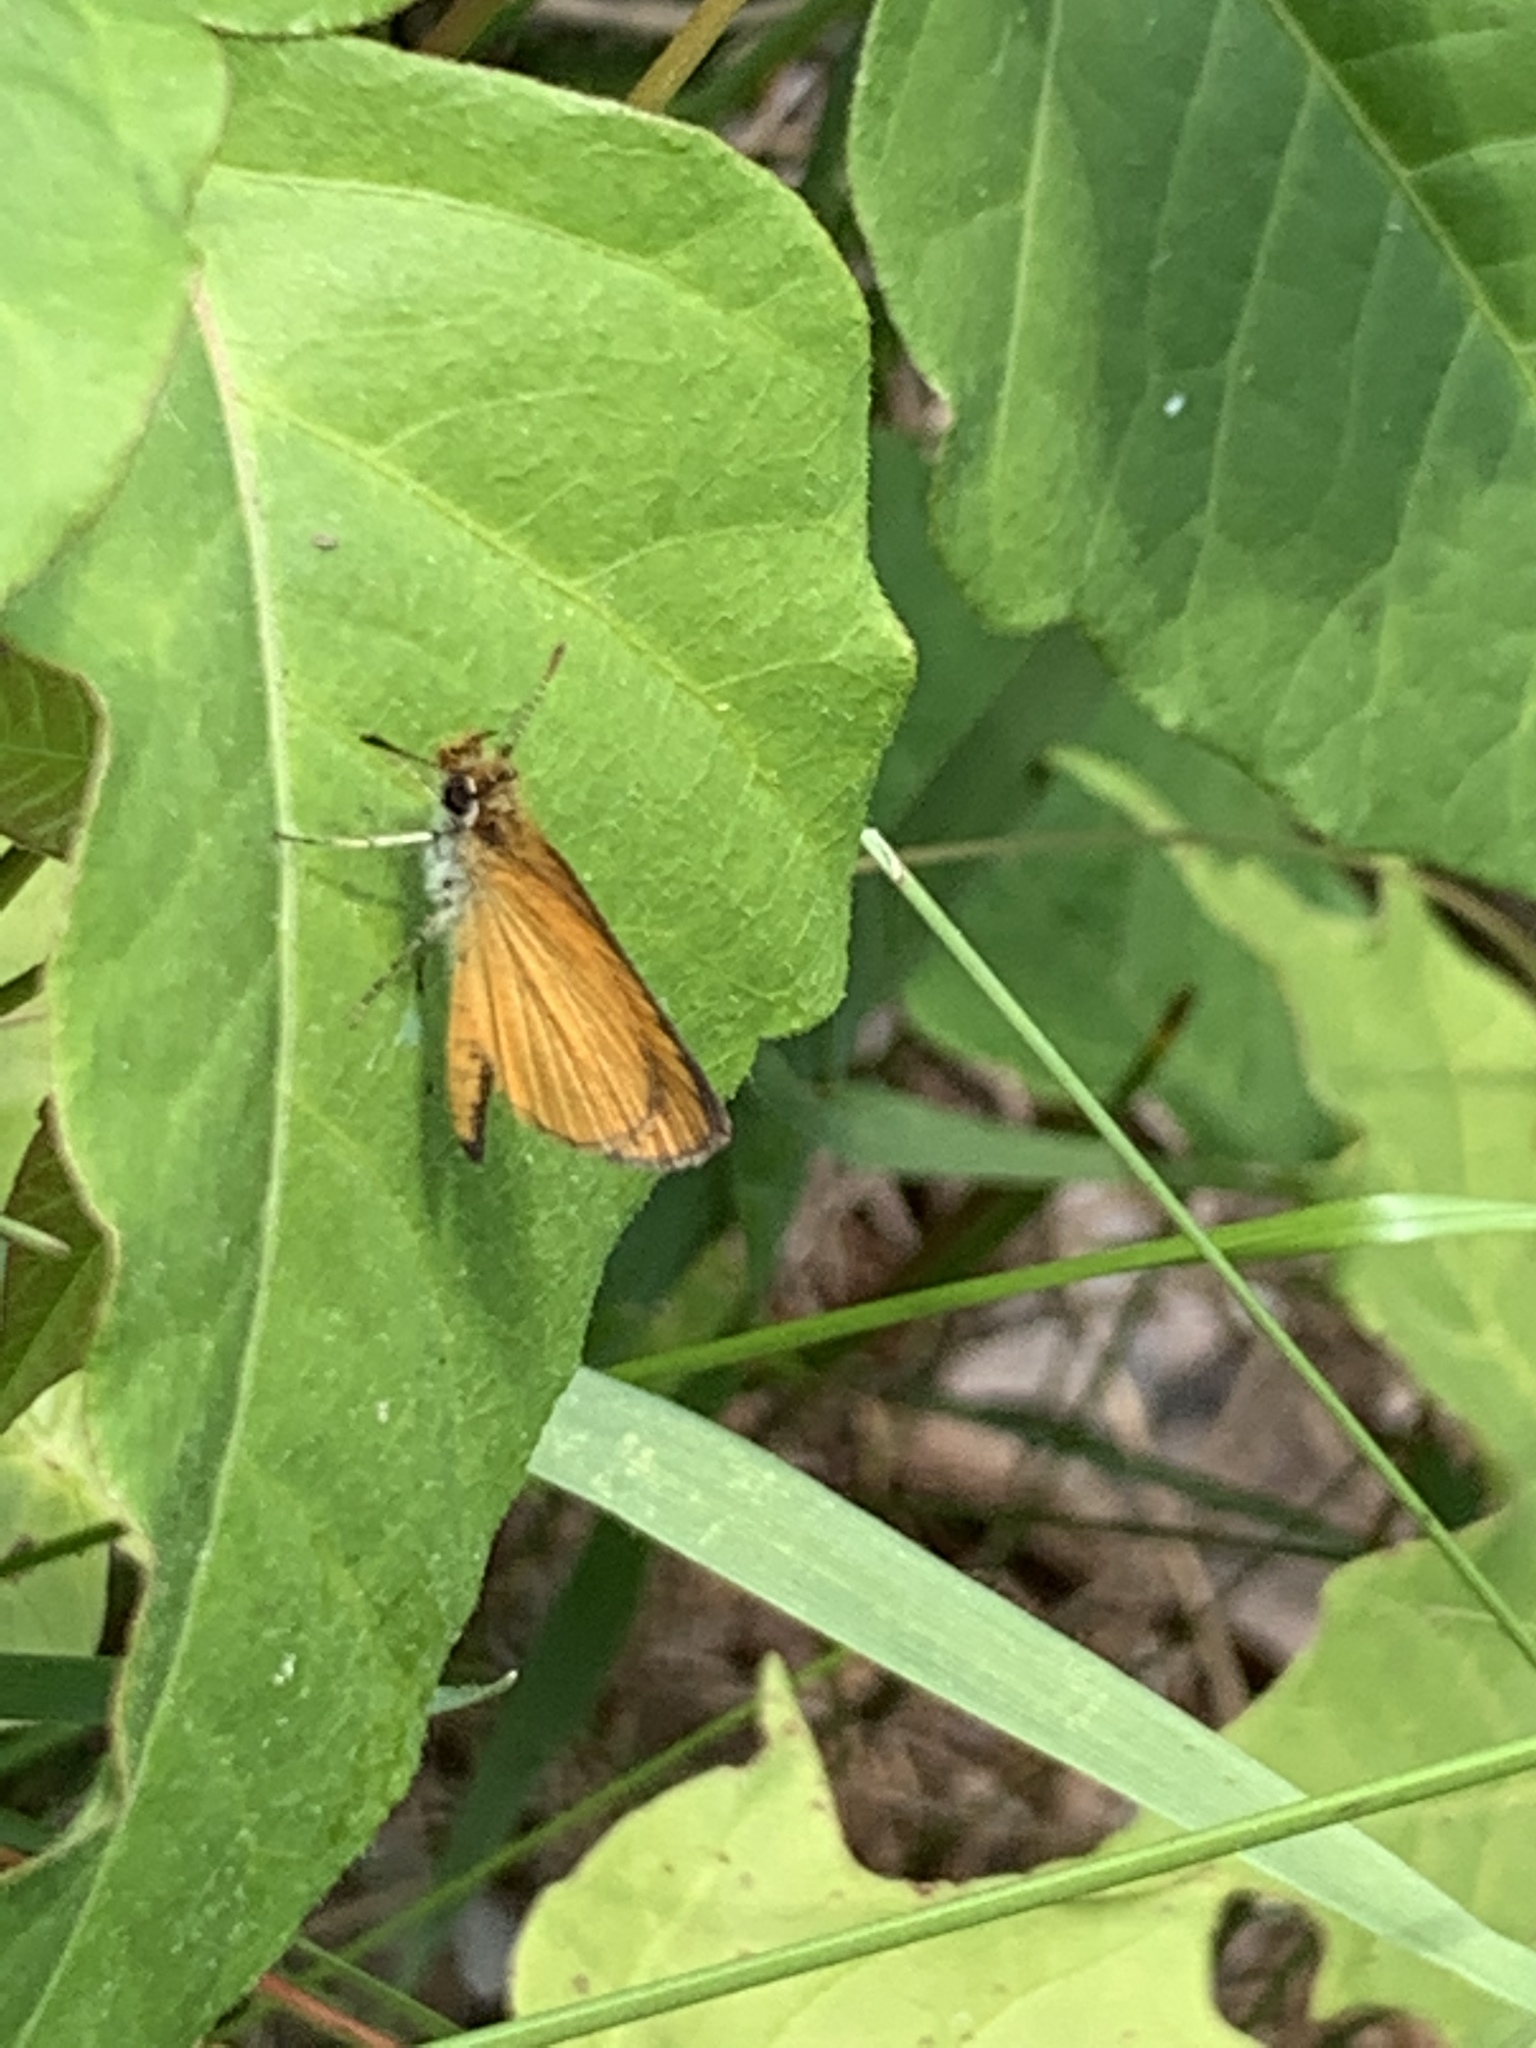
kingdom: Animalia
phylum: Arthropoda
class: Insecta
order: Lepidoptera
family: Hesperiidae
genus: Ancyloxypha
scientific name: Ancyloxypha numitor
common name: Least skipper
